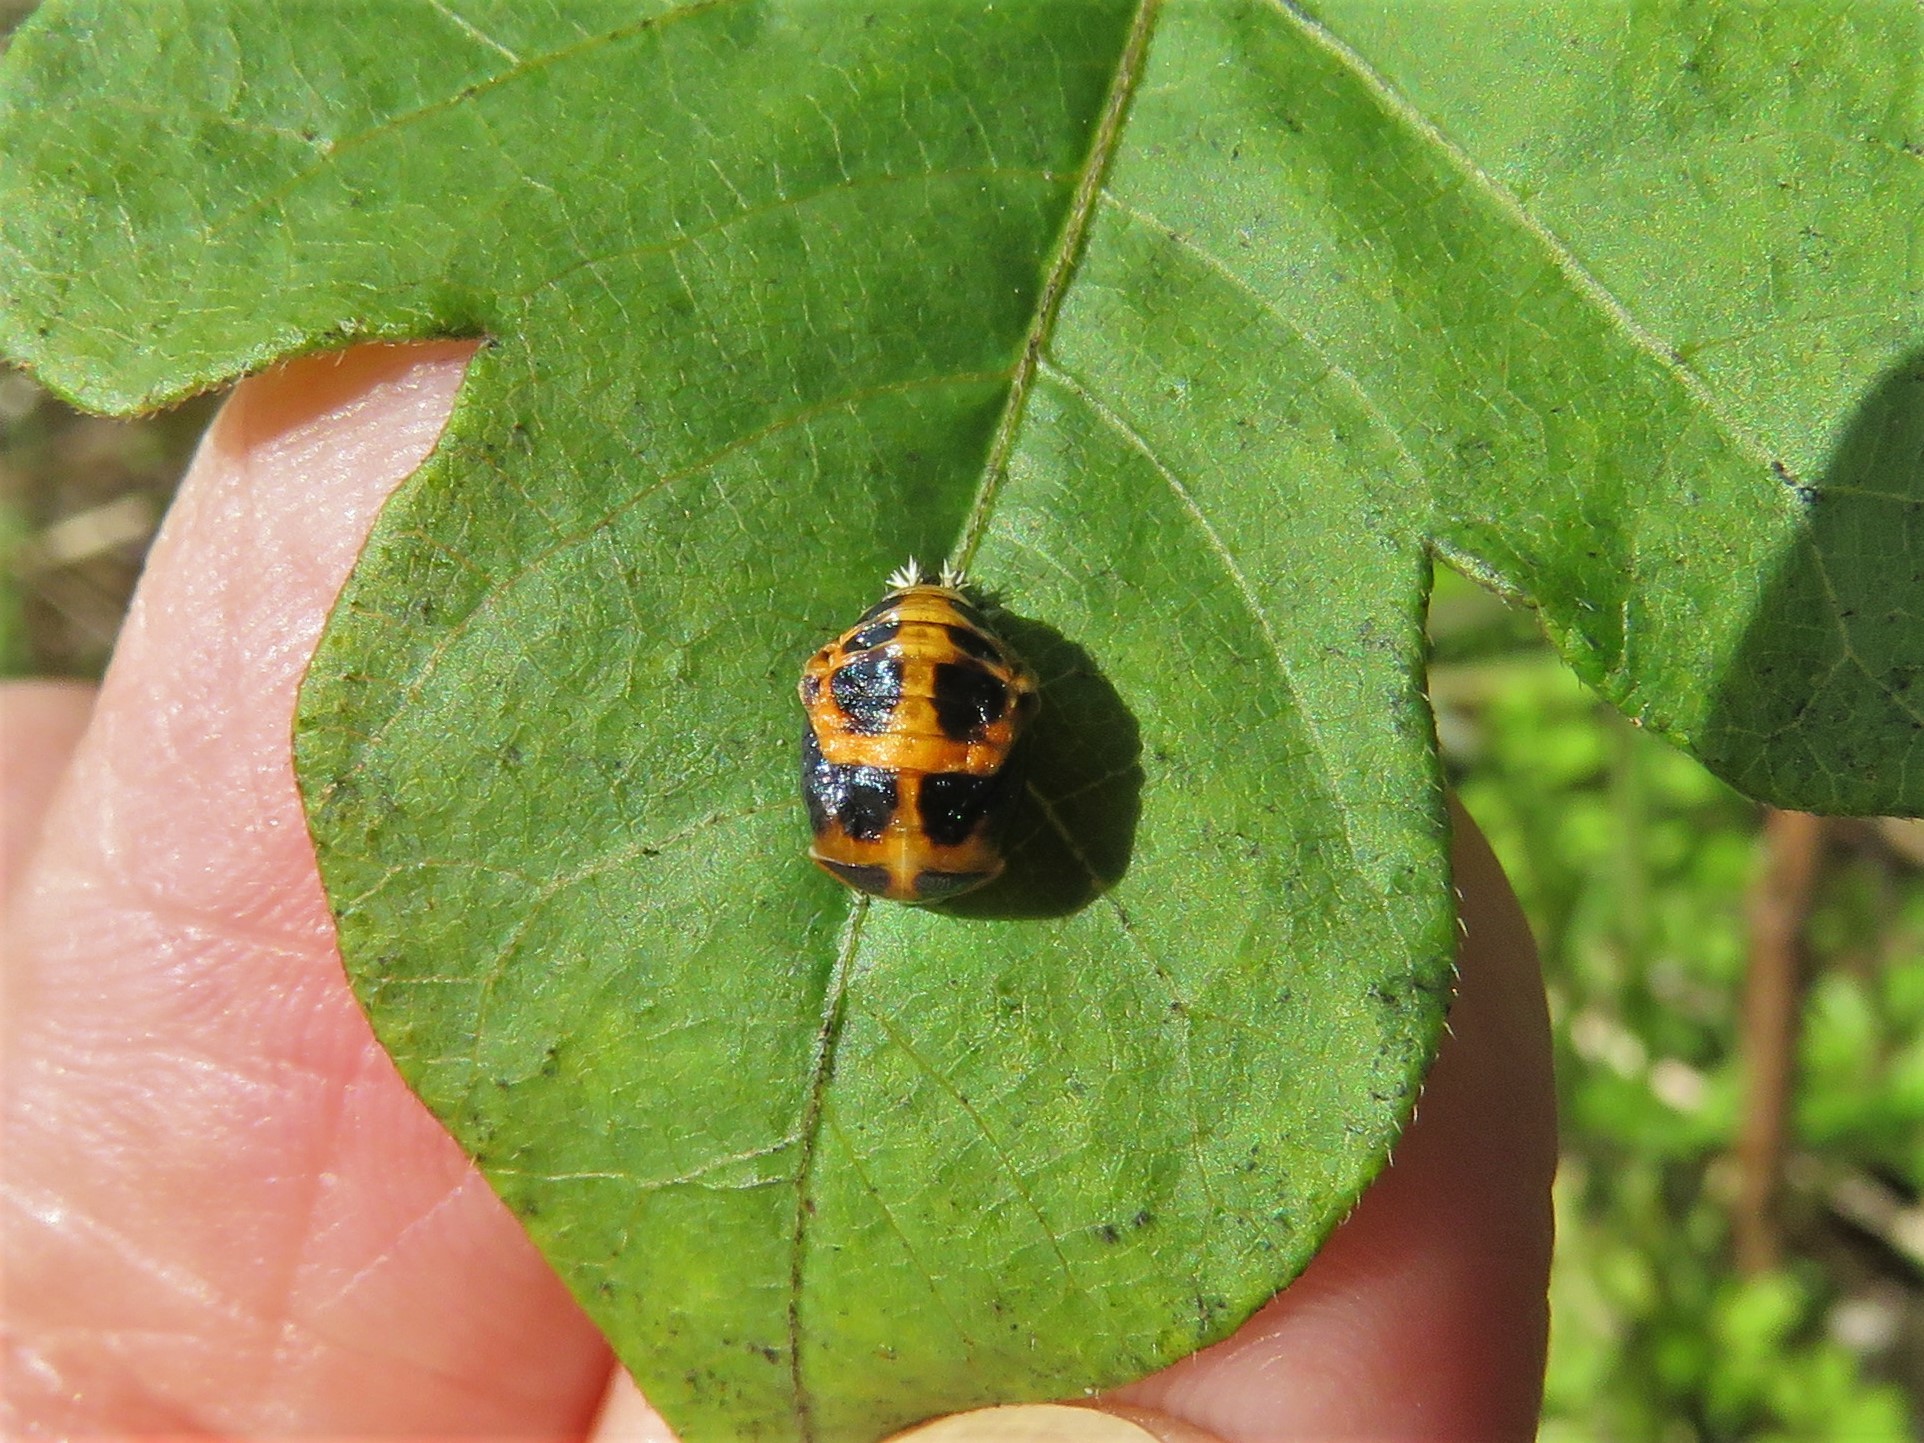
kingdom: Animalia
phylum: Arthropoda
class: Insecta
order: Coleoptera
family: Coccinellidae
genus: Harmonia
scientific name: Harmonia axyridis
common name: Harlequin ladybird
